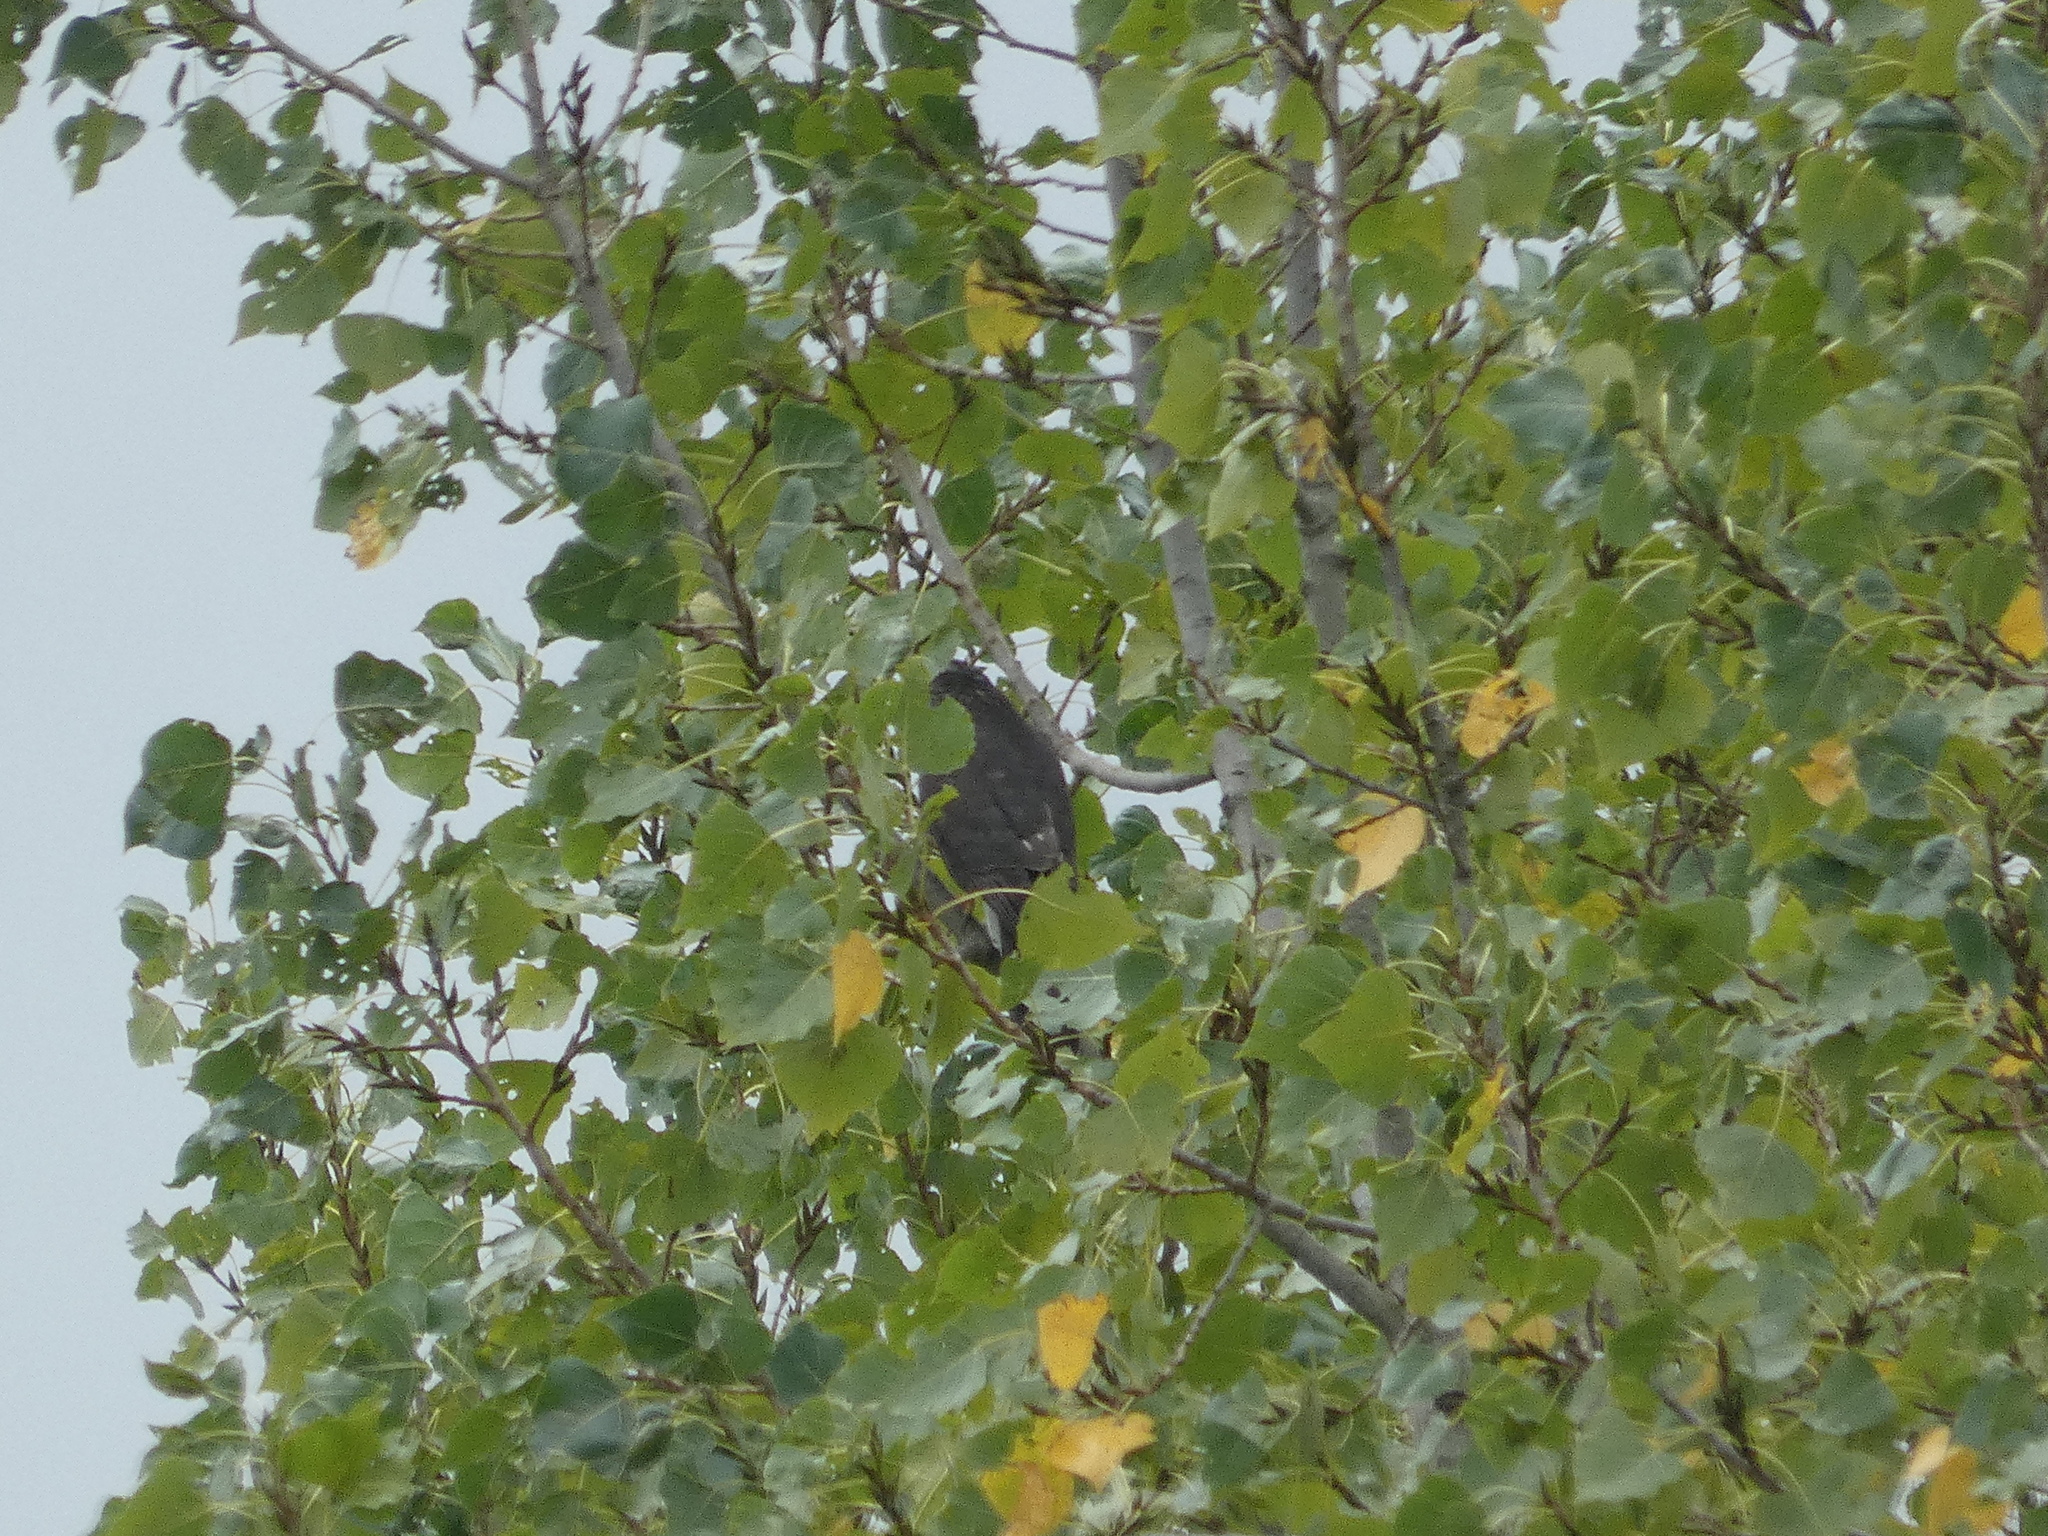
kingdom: Animalia
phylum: Chordata
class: Aves
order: Accipitriformes
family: Accipitridae
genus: Accipiter
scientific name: Accipiter nisus
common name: Eurasian sparrowhawk
